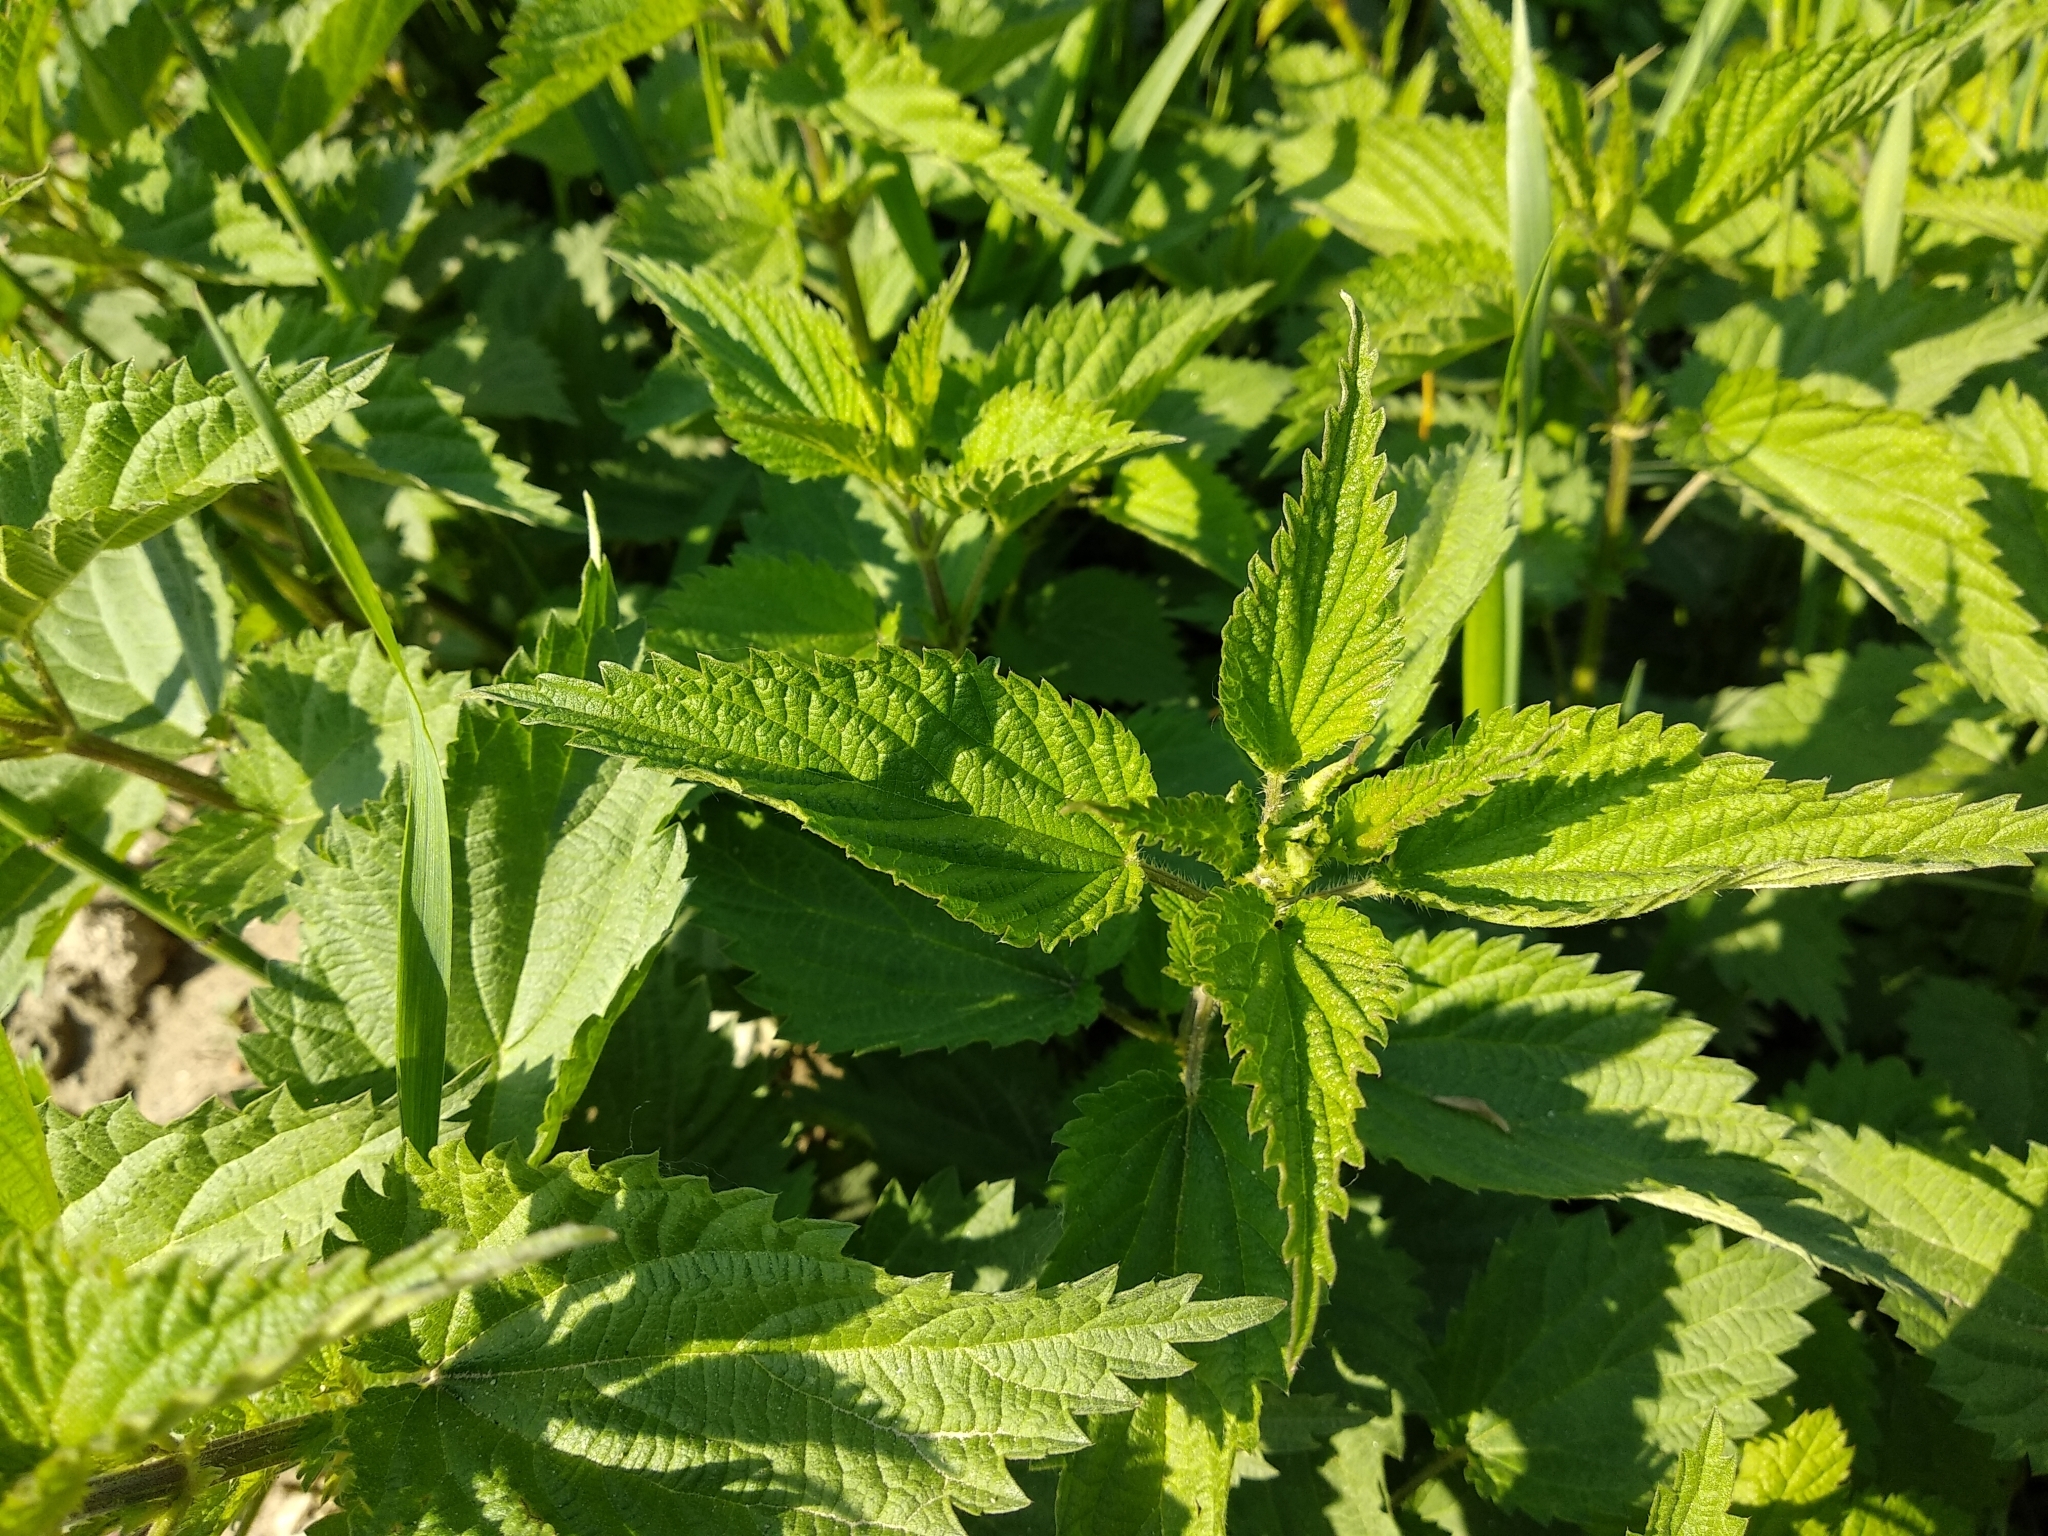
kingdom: Plantae
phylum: Tracheophyta
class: Magnoliopsida
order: Rosales
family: Urticaceae
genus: Urtica
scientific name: Urtica dioica
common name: Common nettle
